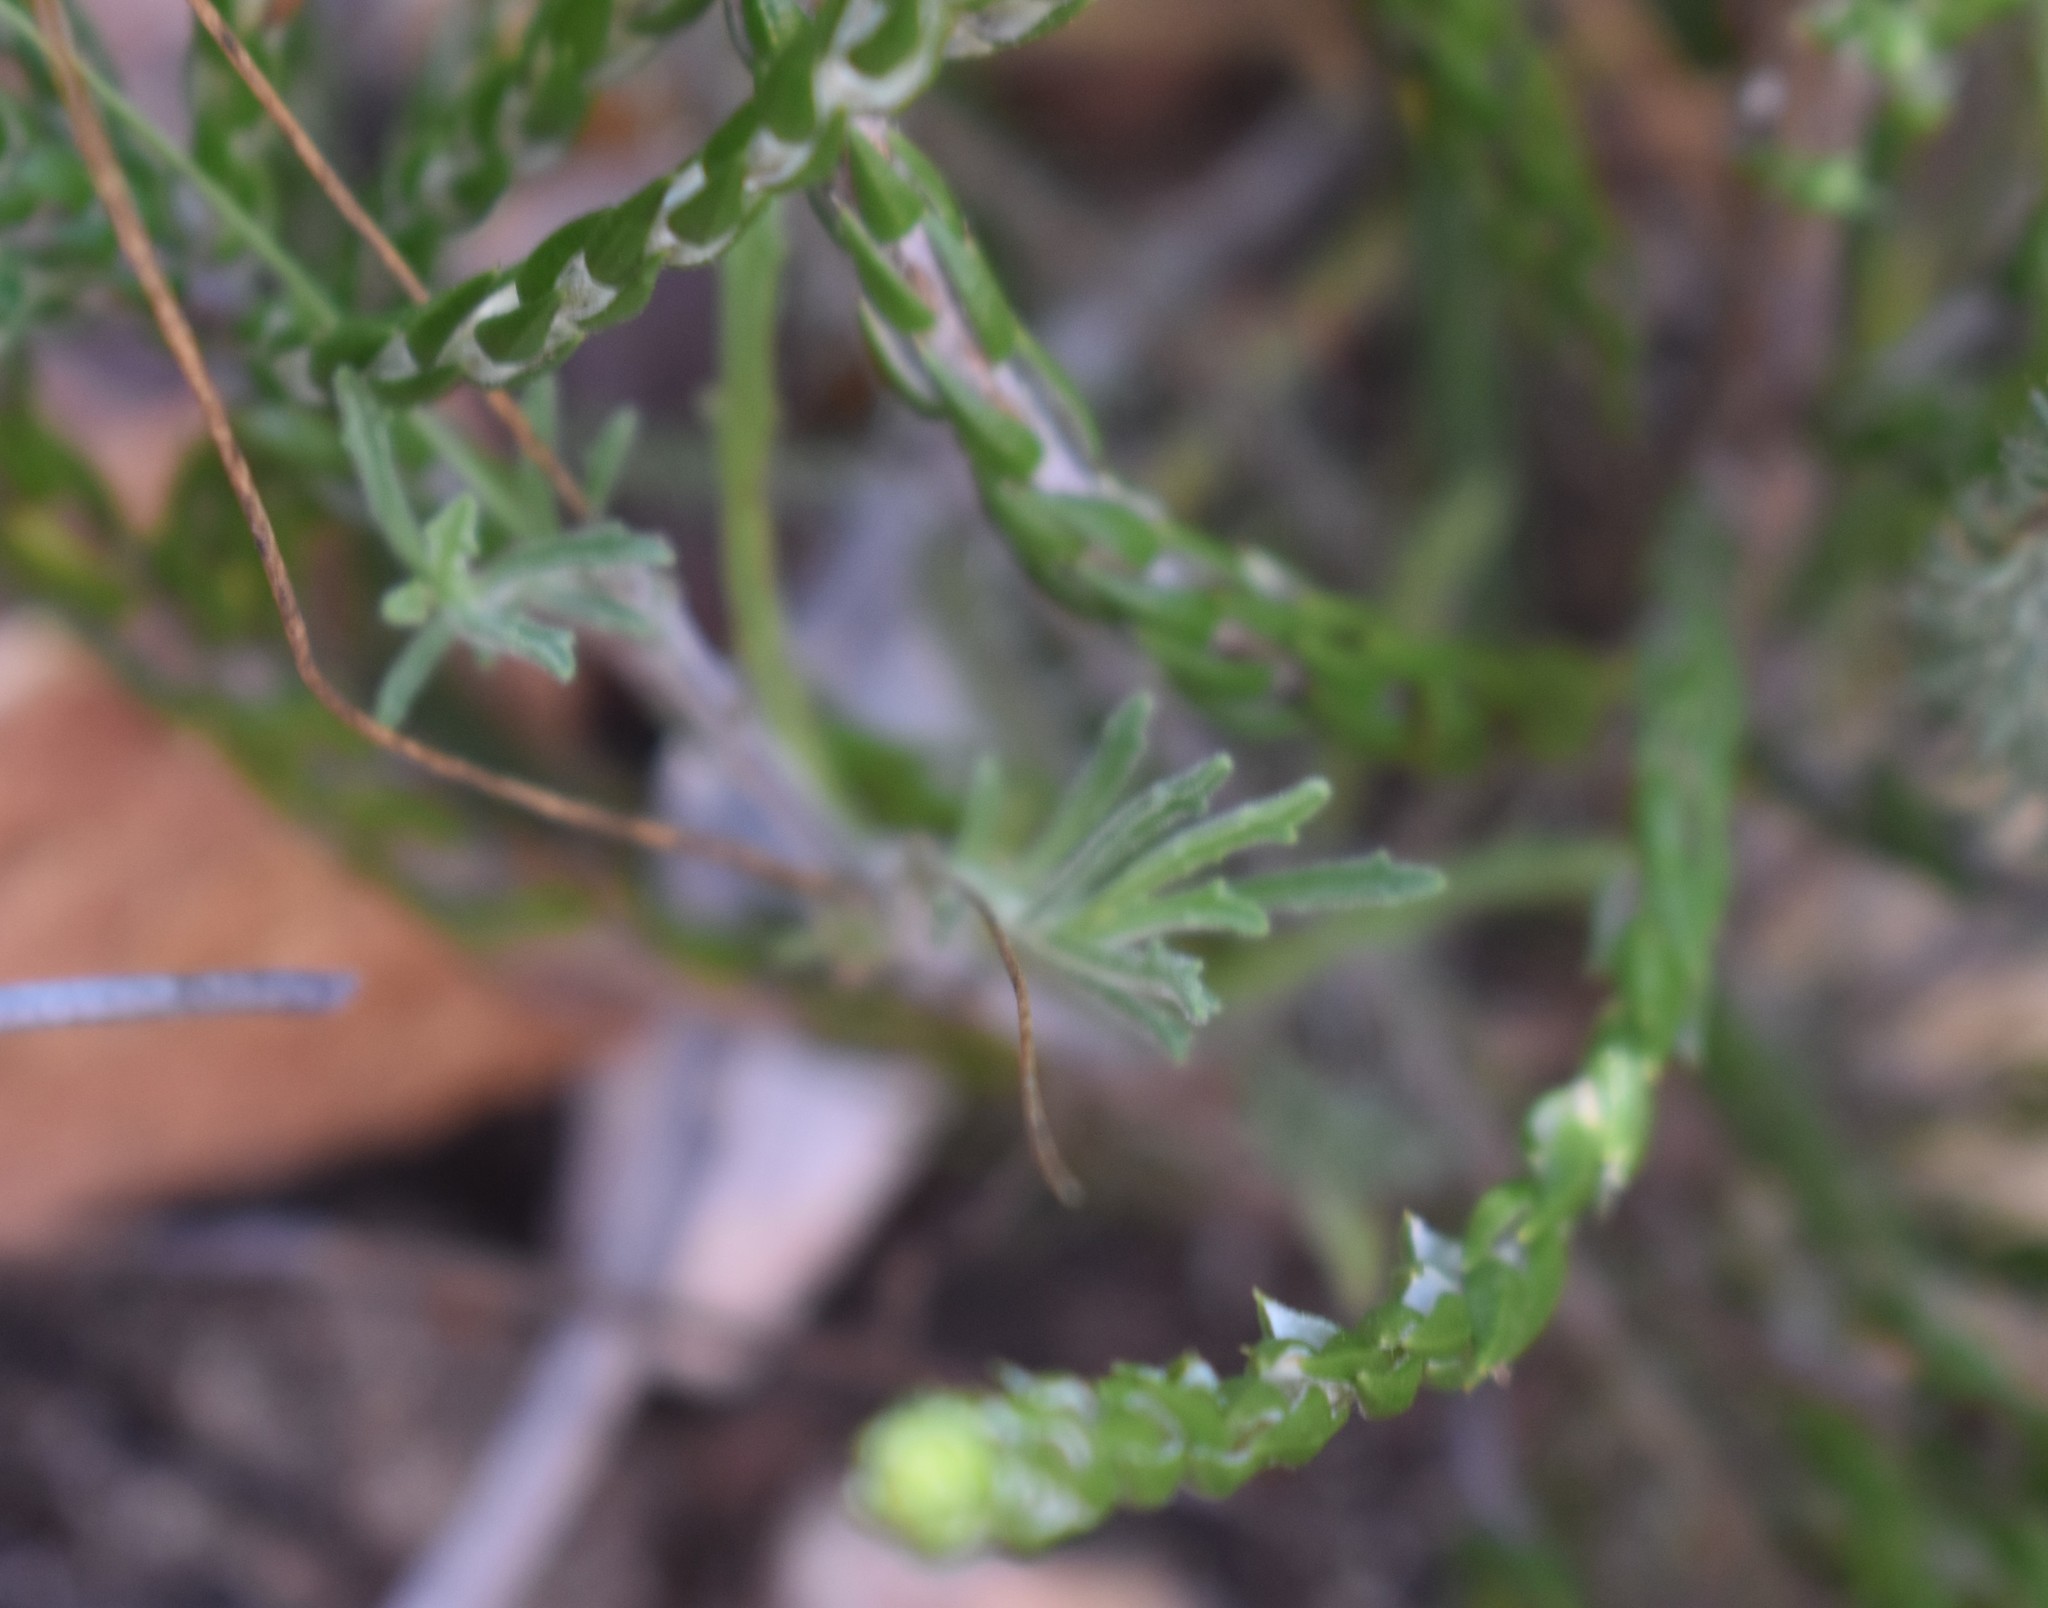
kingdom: Plantae
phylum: Tracheophyta
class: Magnoliopsida
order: Asterales
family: Campanulaceae
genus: Lobelia
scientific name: Lobelia tomentosa
